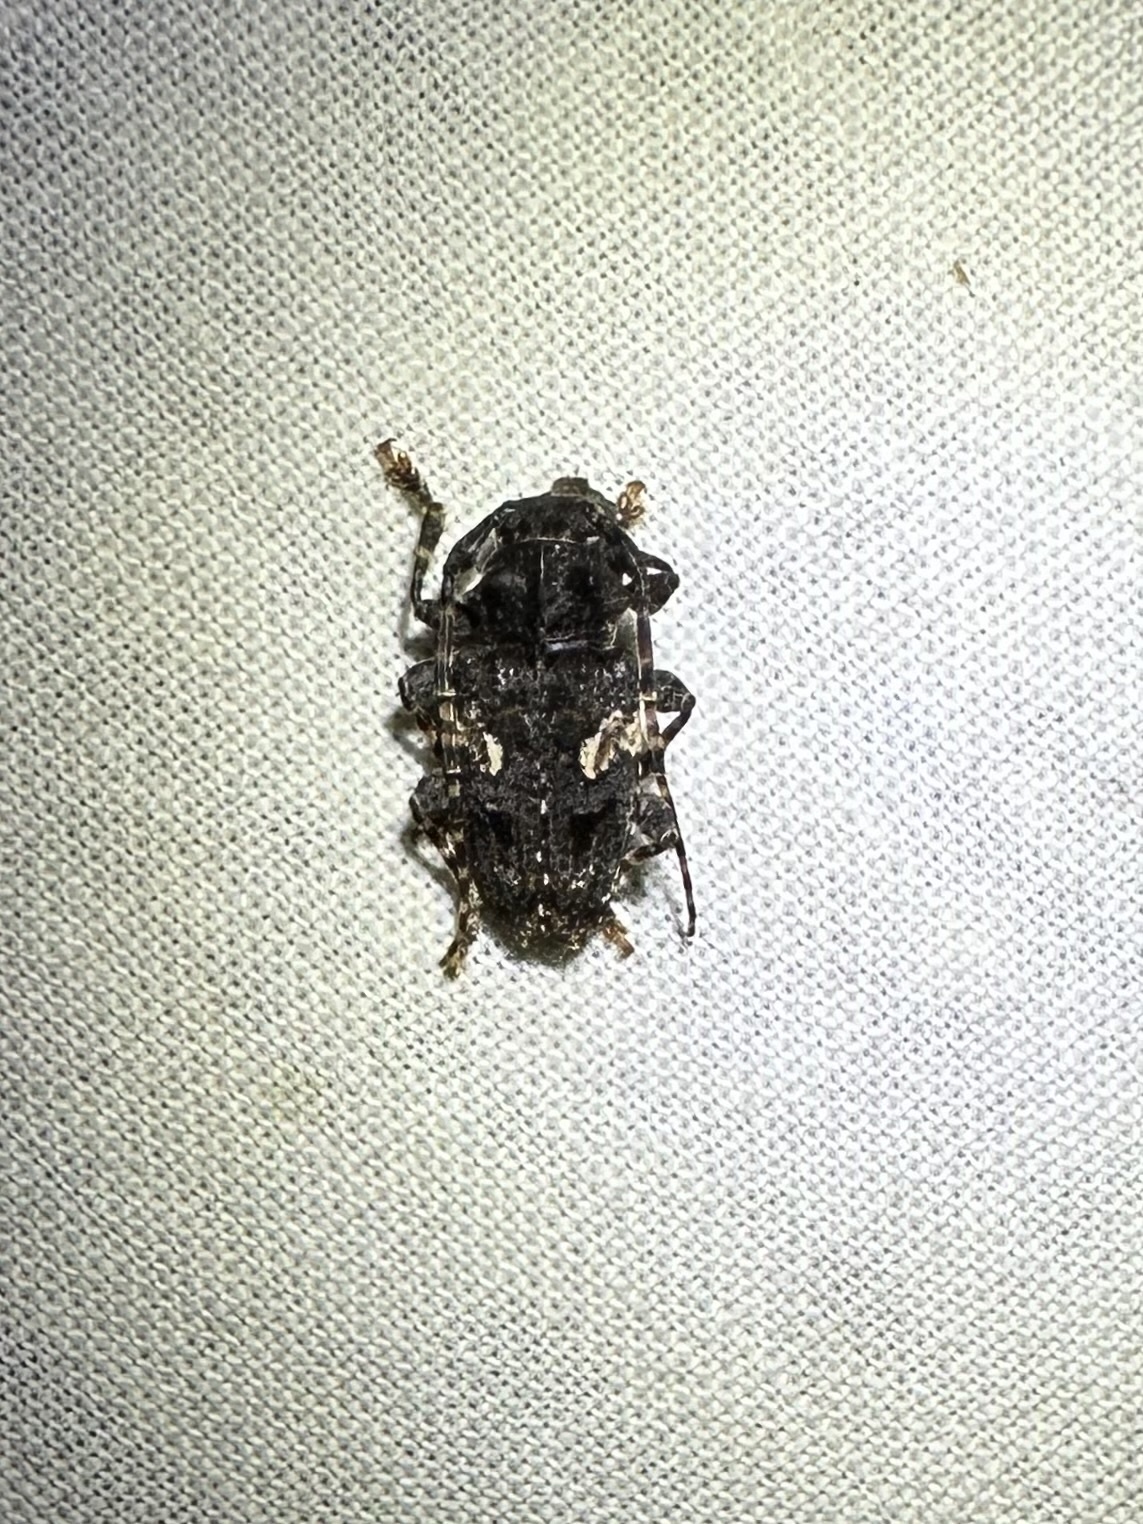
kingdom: Animalia
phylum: Arthropoda
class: Insecta
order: Coleoptera
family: Cerambycidae
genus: Psapharochrus
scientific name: Psapharochrus circumflexus
